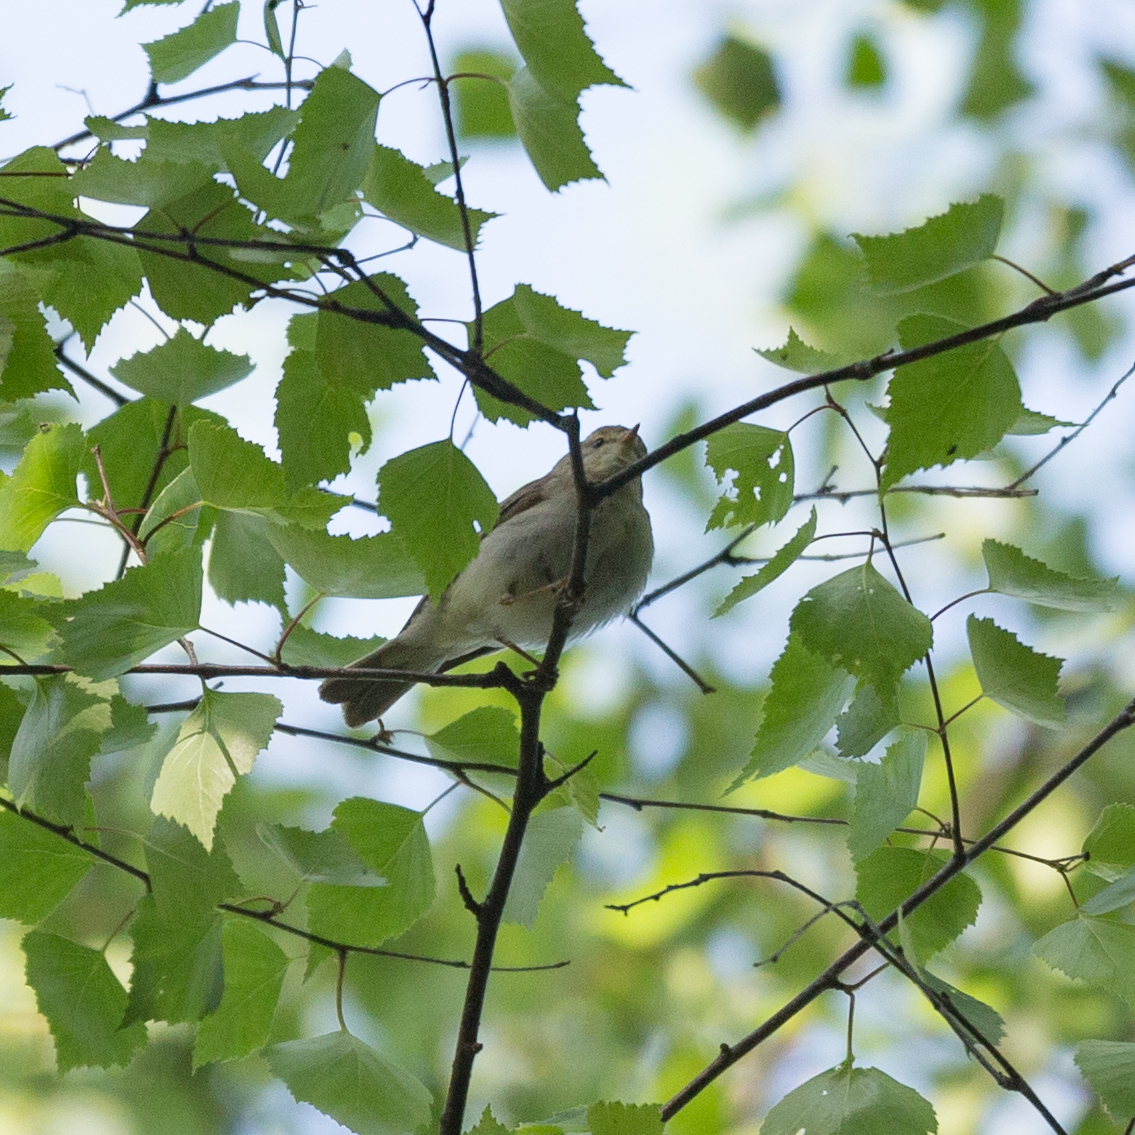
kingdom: Animalia
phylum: Chordata
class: Aves
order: Passeriformes
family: Phylloscopidae
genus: Phylloscopus
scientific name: Phylloscopus trochilus
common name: Willow warbler
